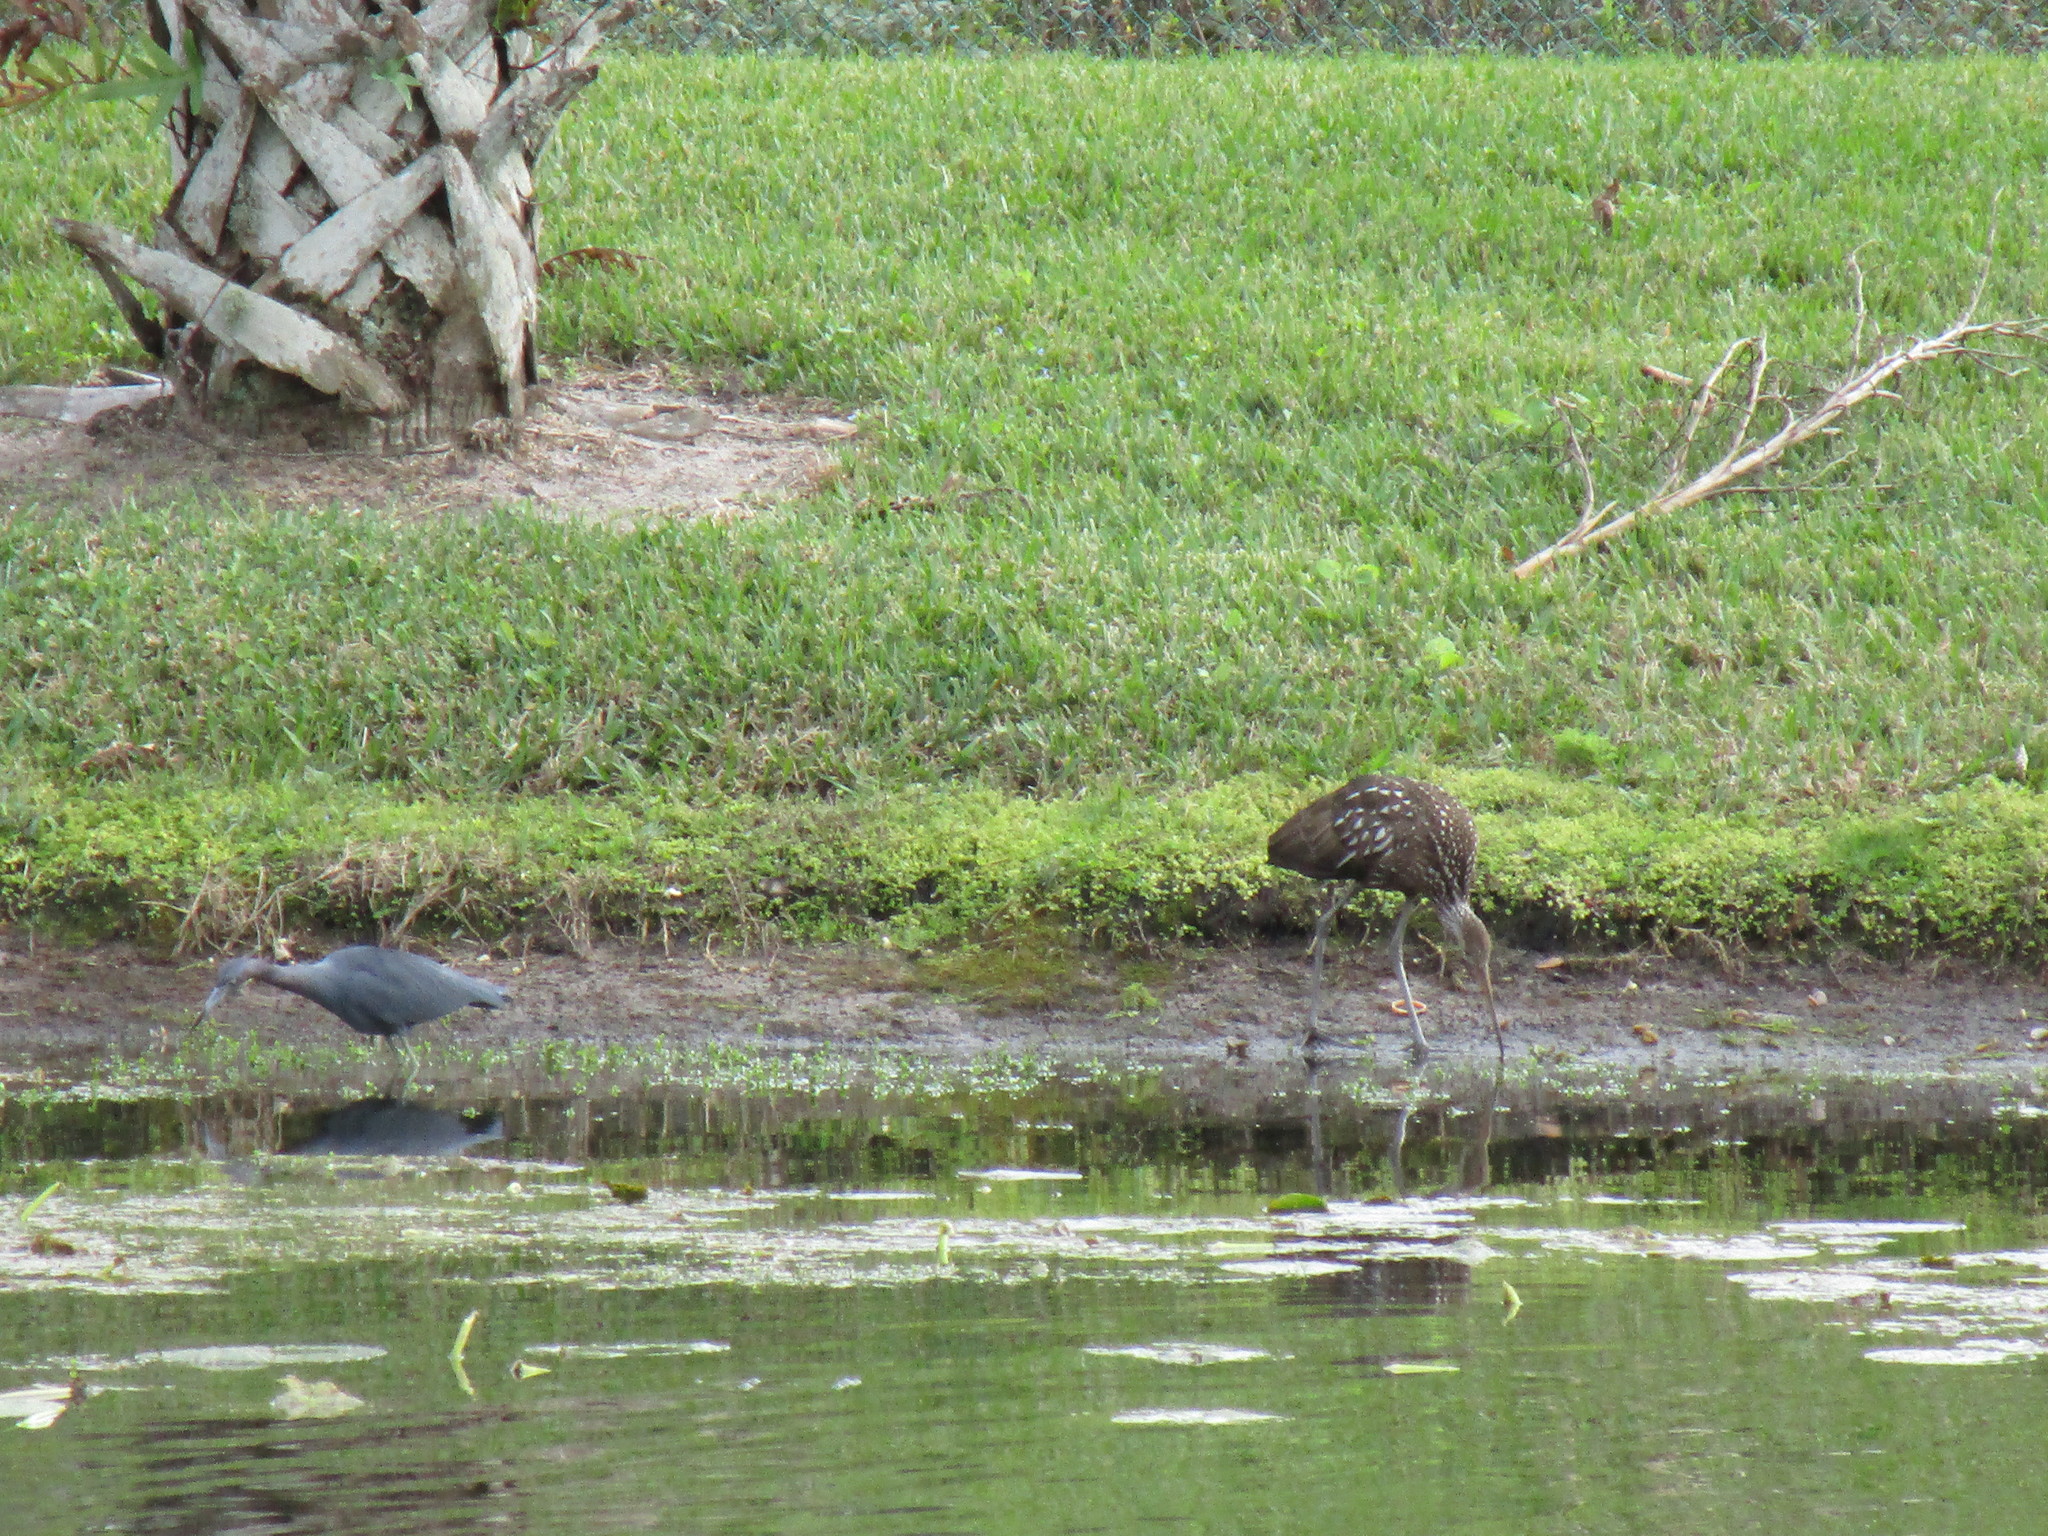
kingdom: Animalia
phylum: Chordata
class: Aves
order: Gruiformes
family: Aramidae
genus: Aramus
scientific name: Aramus guarauna
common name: Limpkin
